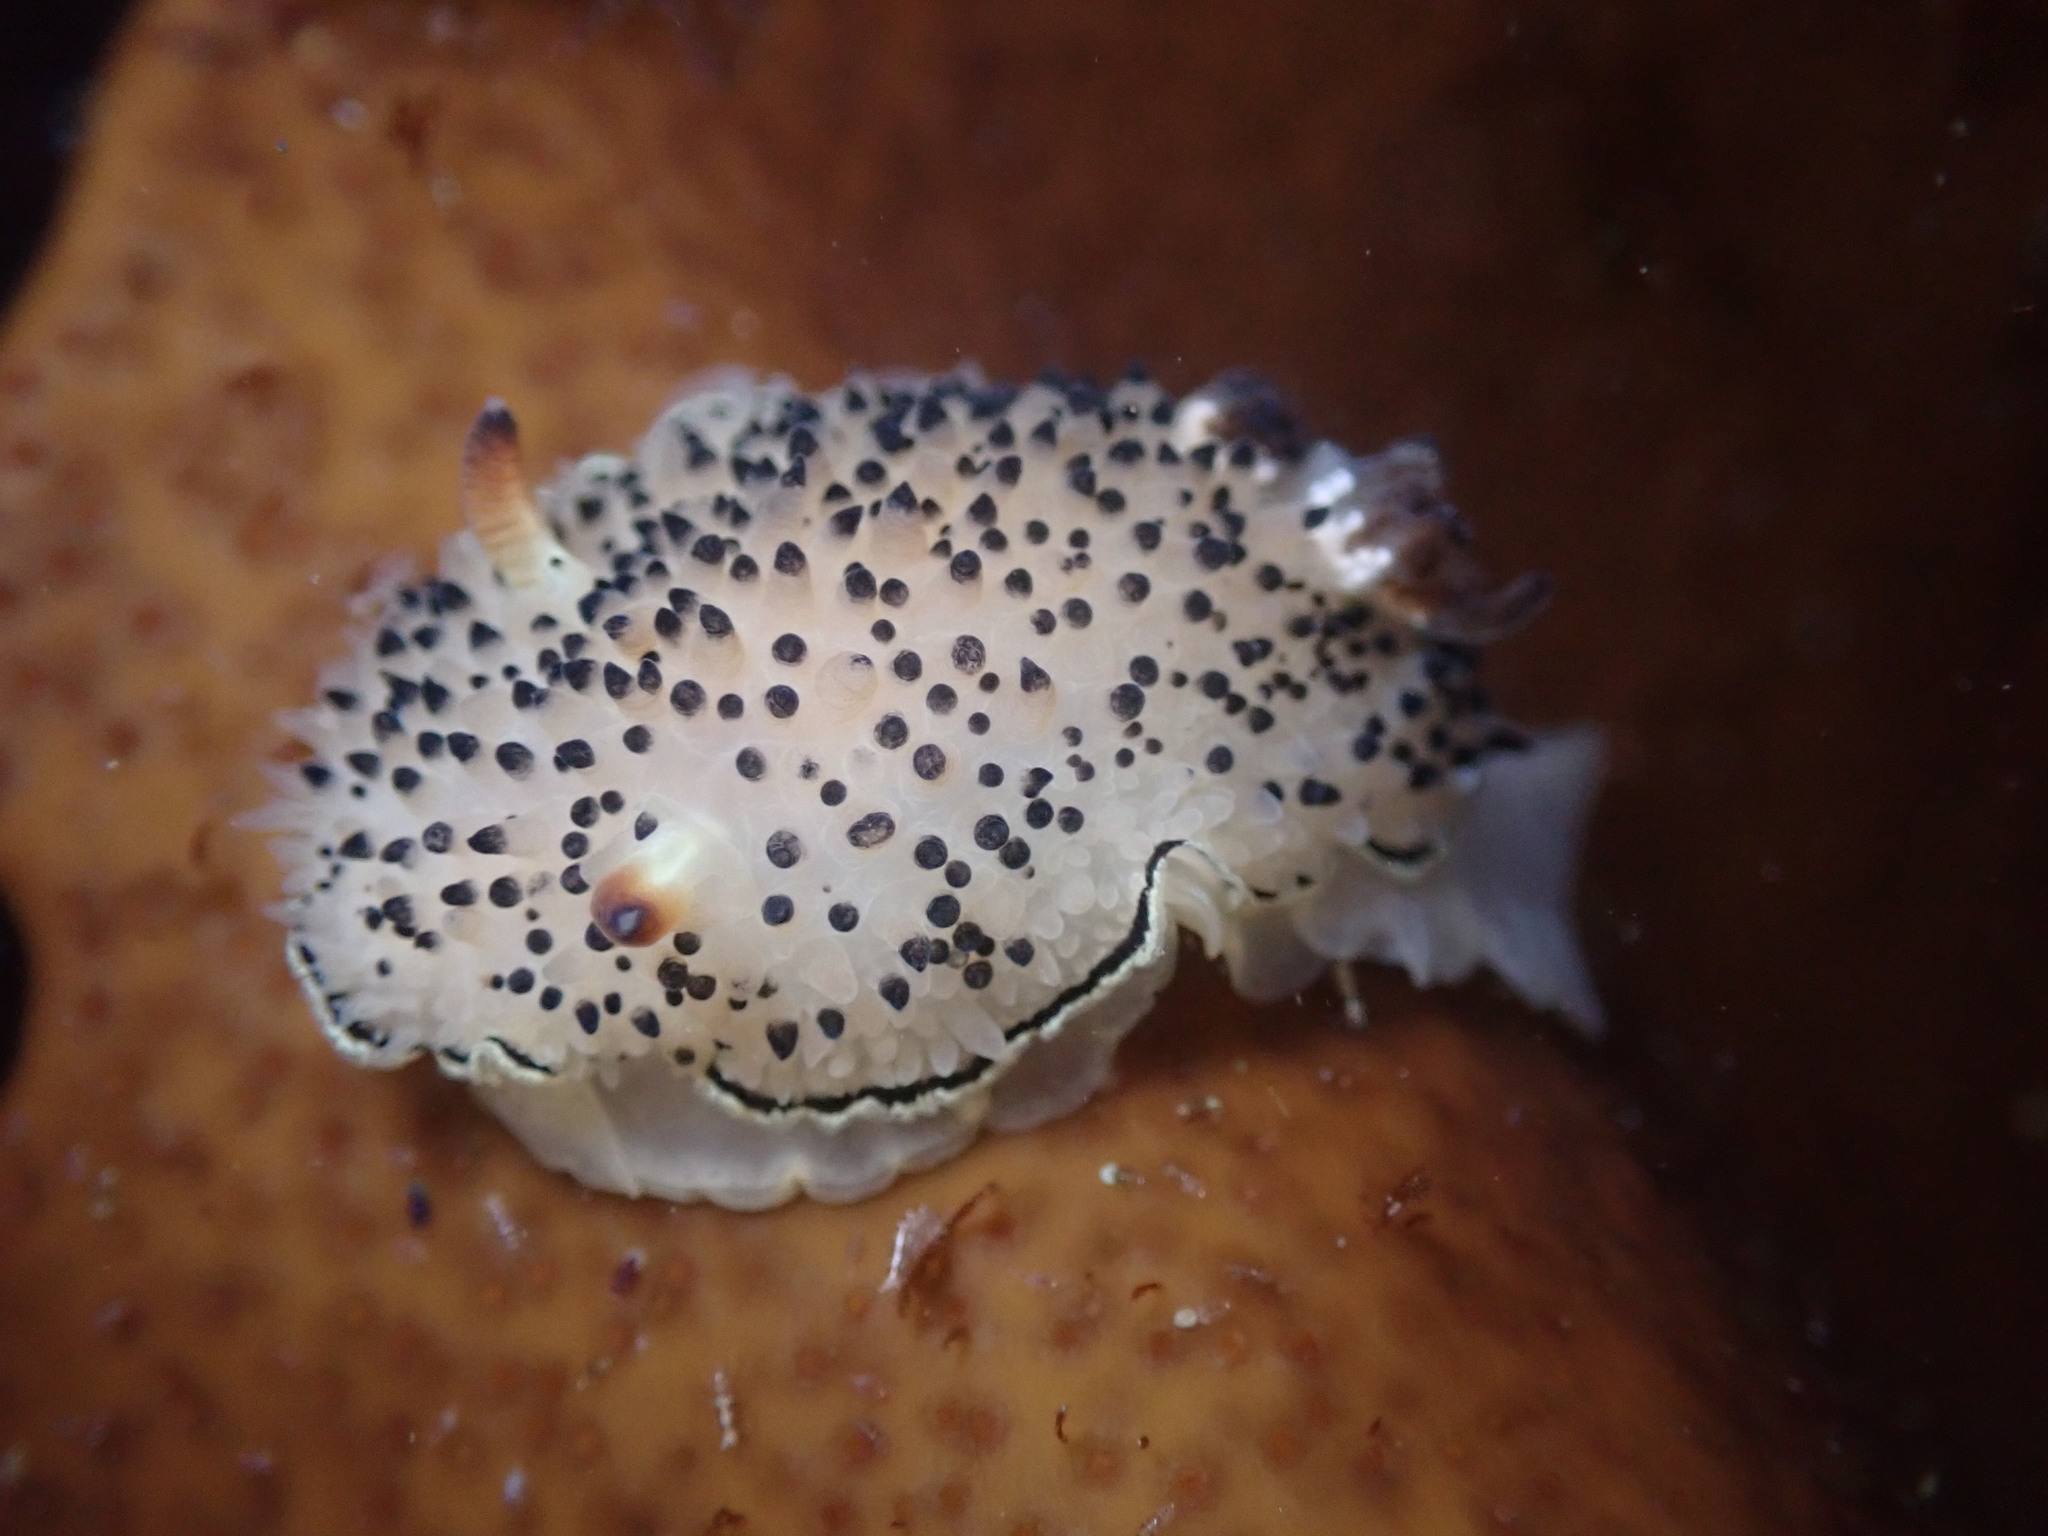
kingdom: Animalia
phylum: Mollusca
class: Gastropoda
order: Nudibranchia
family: Onchidorididae
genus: Acanthodoris
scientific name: Acanthodoris rhodoceras
